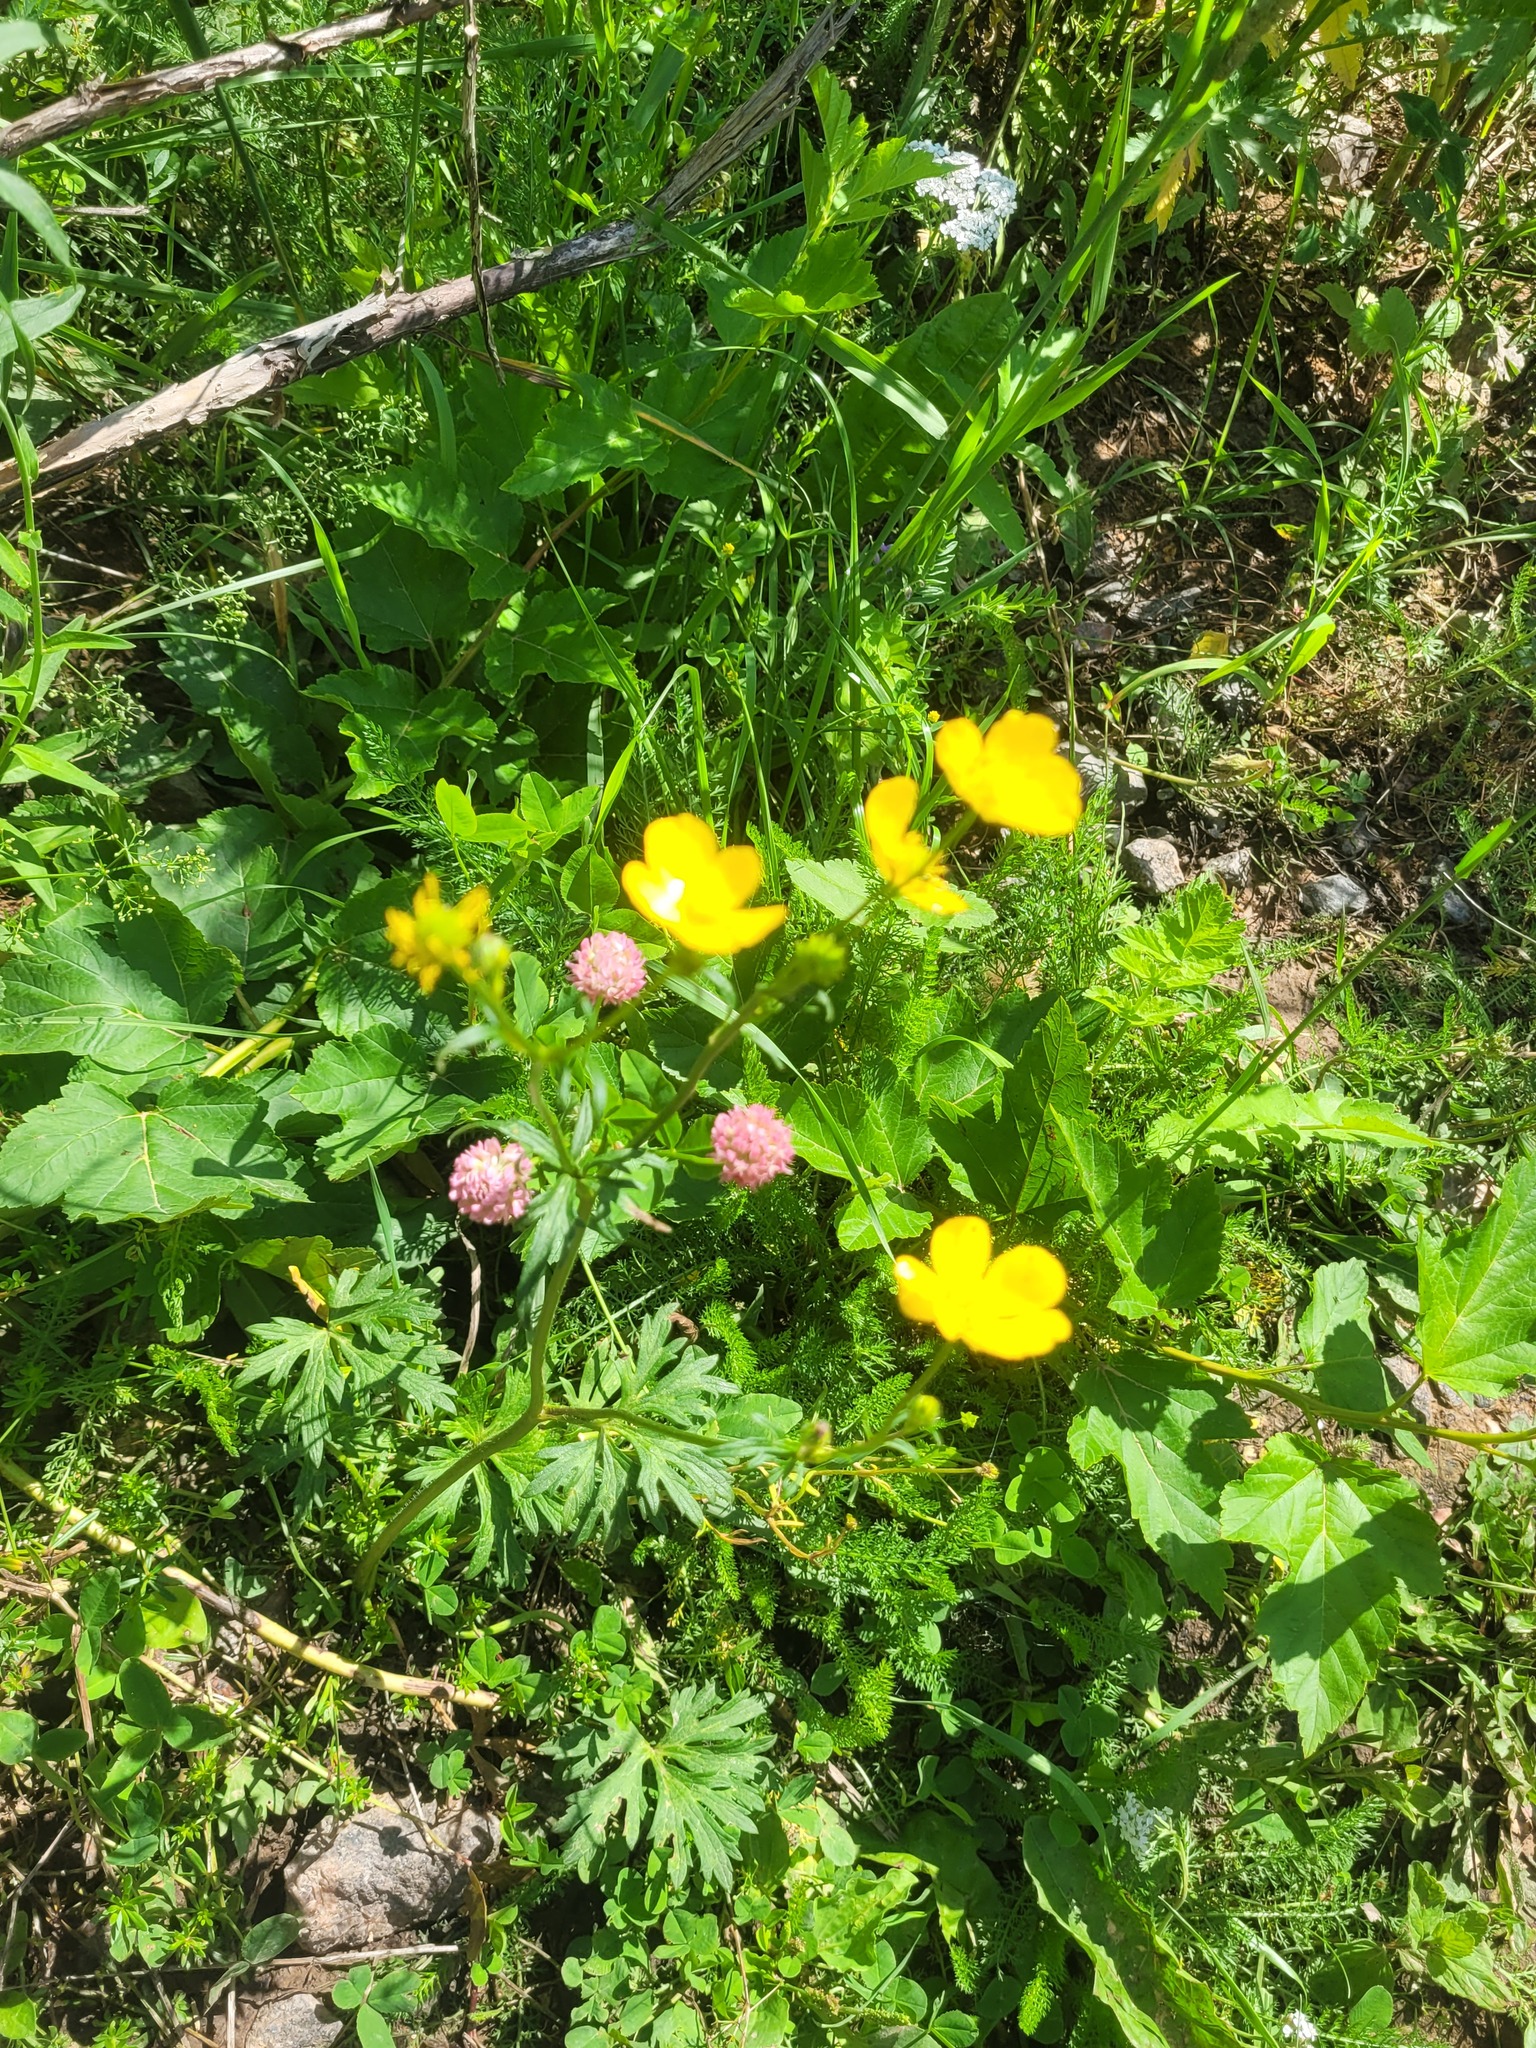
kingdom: Plantae
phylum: Tracheophyta
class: Magnoliopsida
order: Ranunculales
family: Ranunculaceae
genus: Ranunculus
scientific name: Ranunculus polyanthemos
